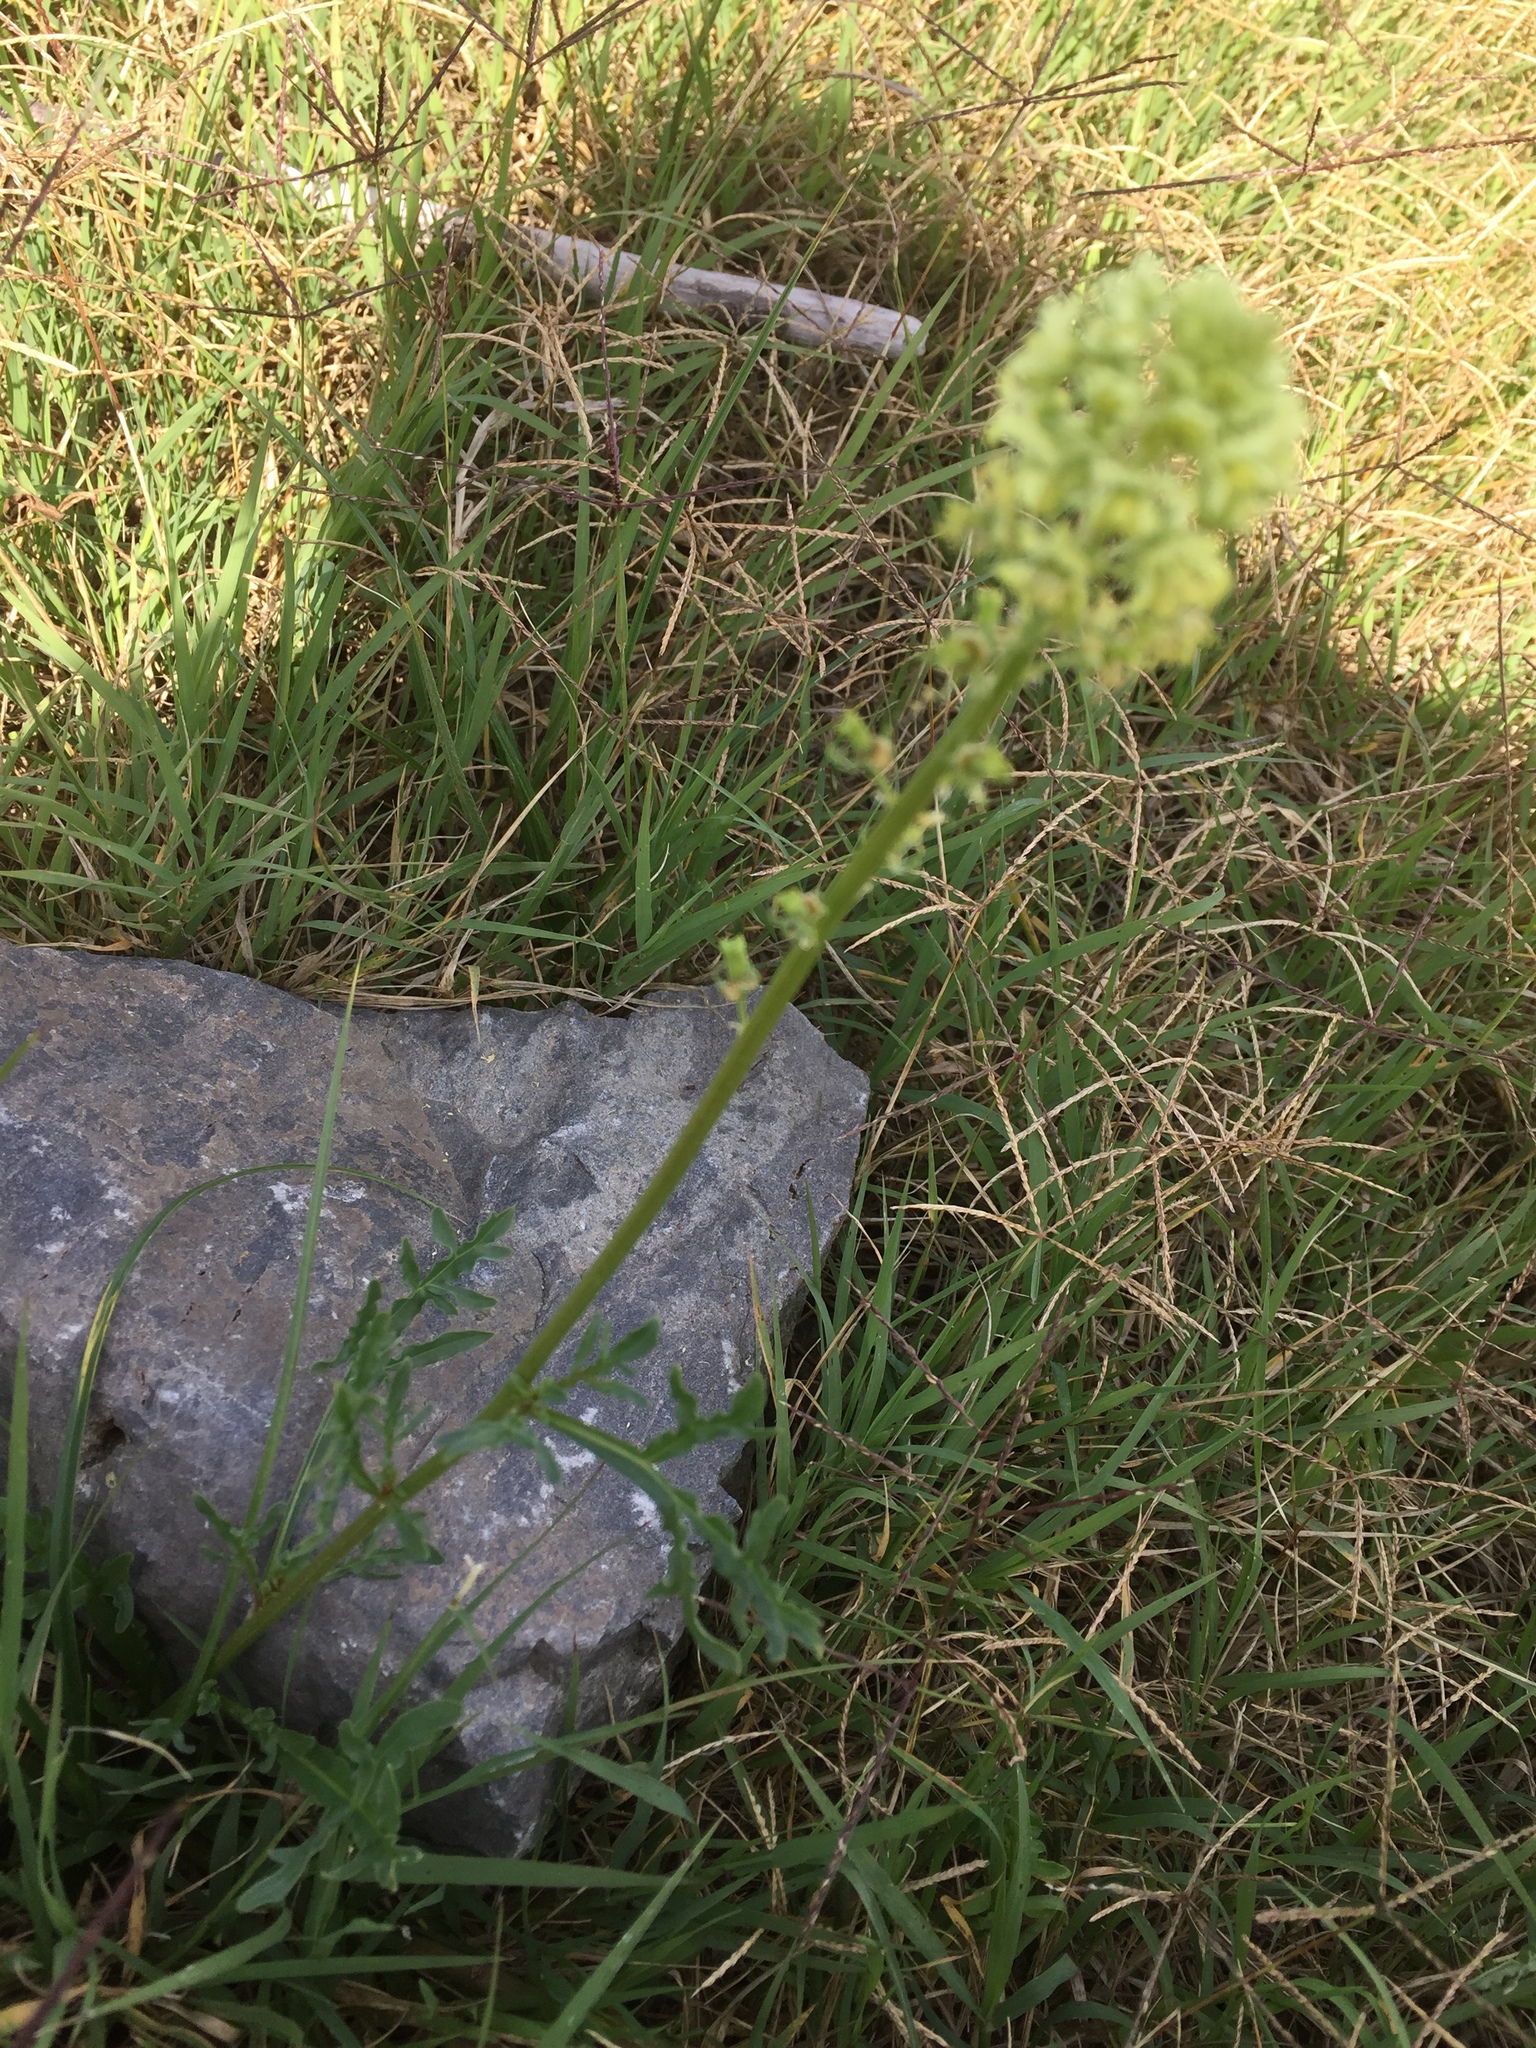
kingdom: Plantae
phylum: Tracheophyta
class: Magnoliopsida
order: Brassicales
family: Resedaceae
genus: Reseda
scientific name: Reseda lutea
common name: Wild mignonette
